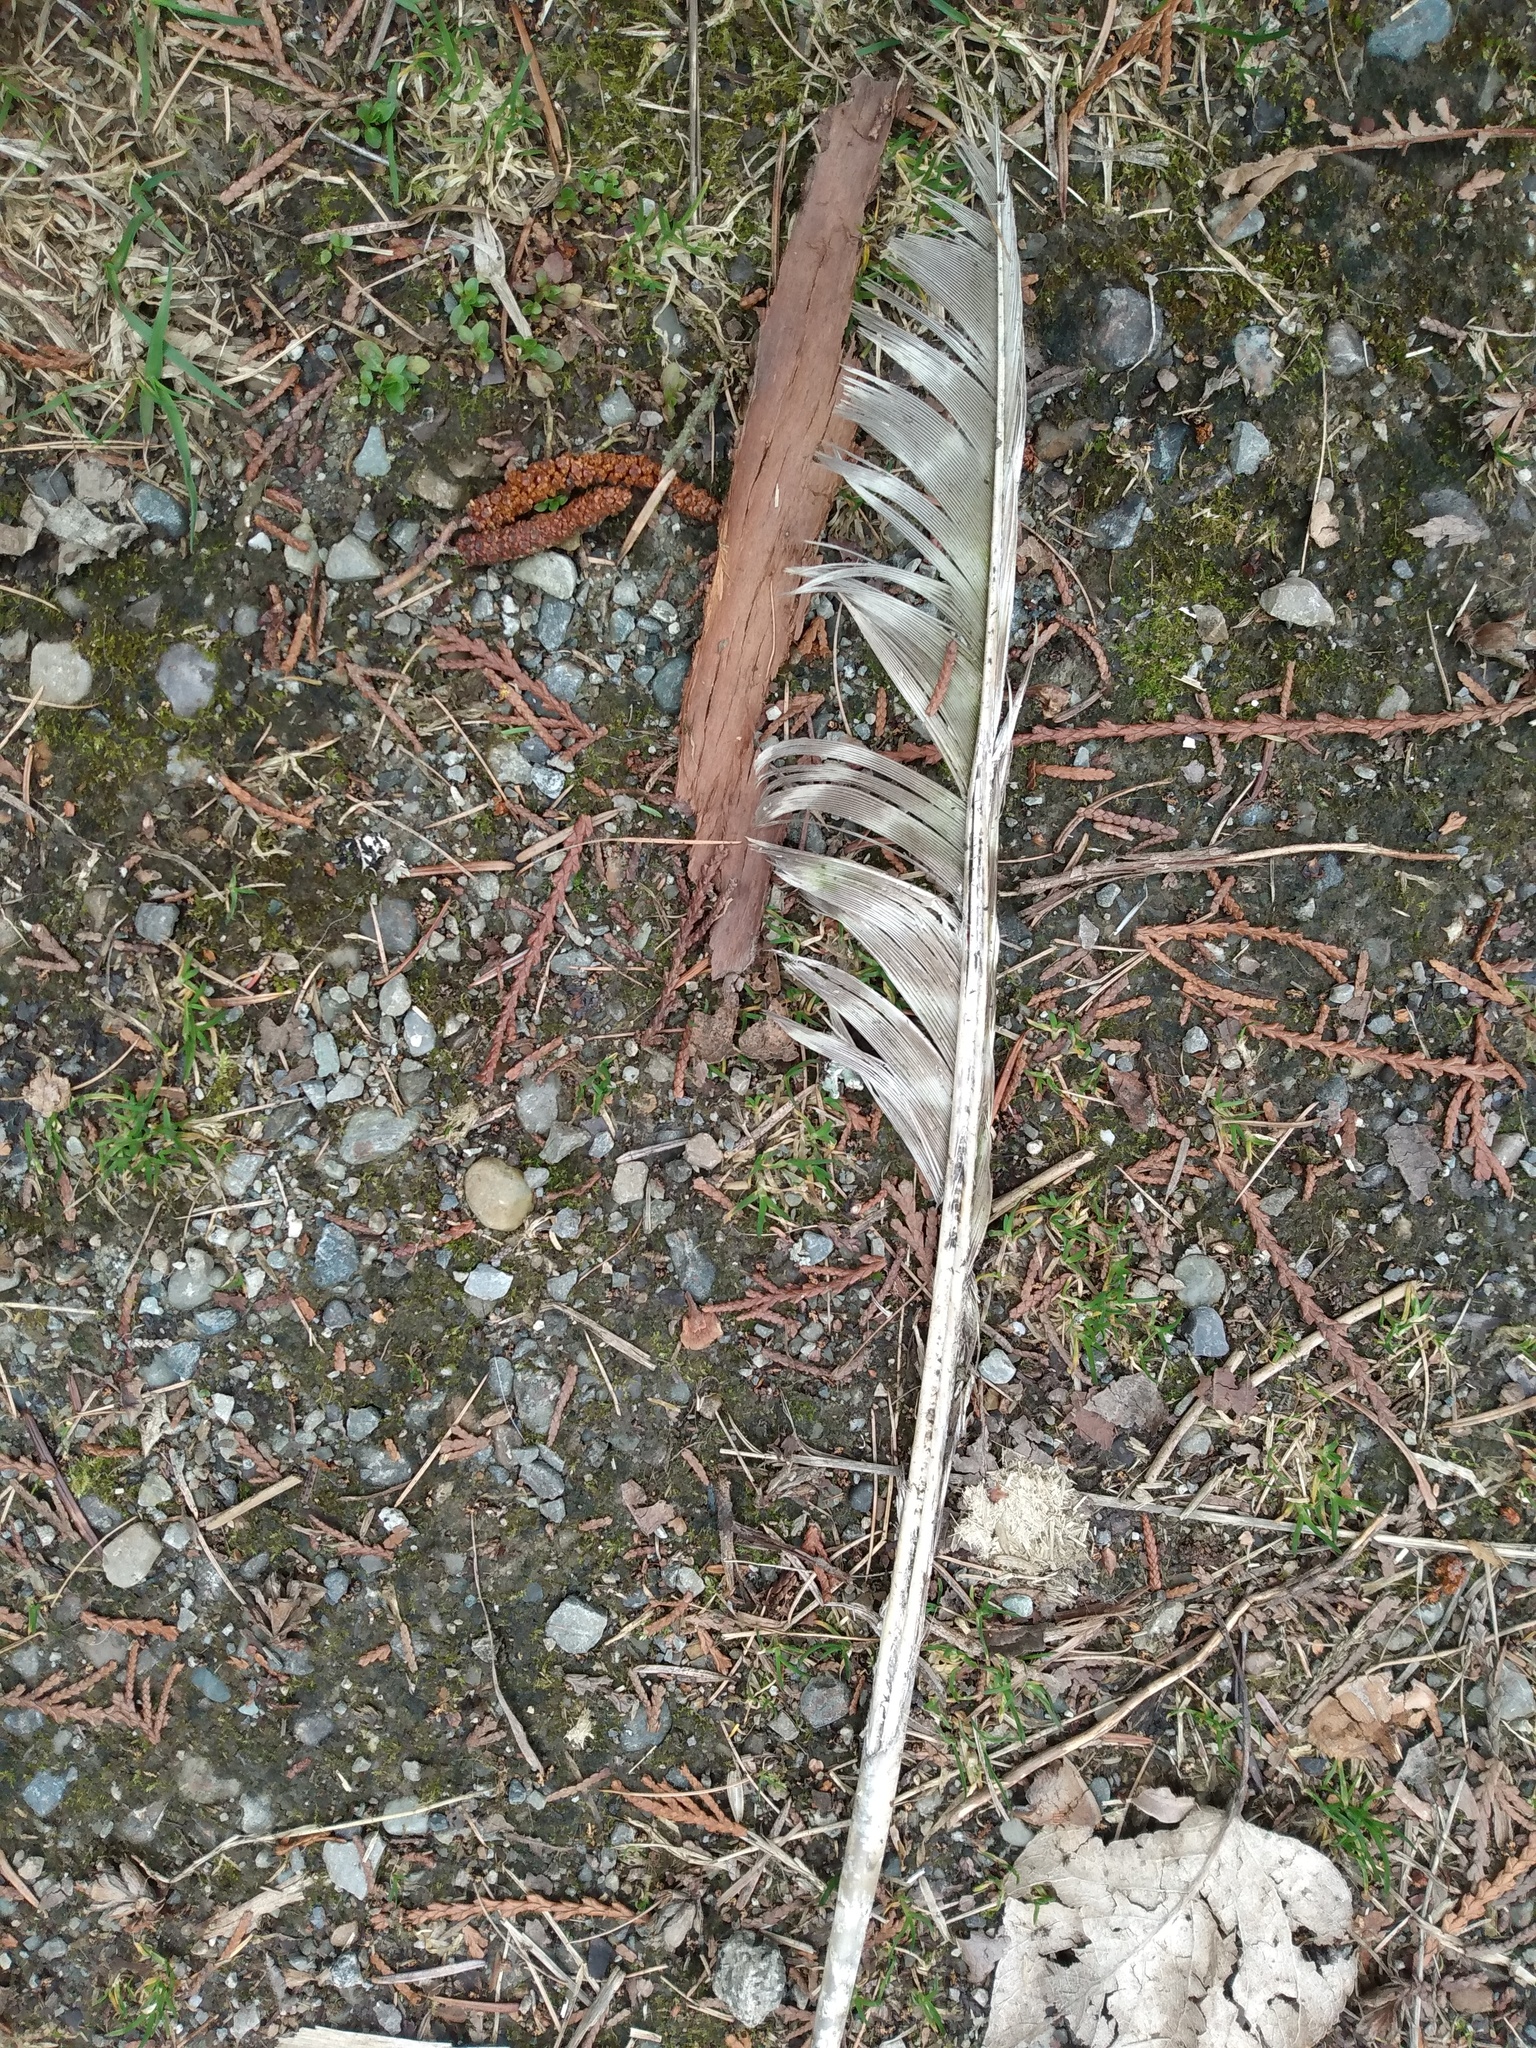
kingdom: Animalia
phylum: Chordata
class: Aves
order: Galliformes
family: Phasianidae
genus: Meleagris
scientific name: Meleagris gallopavo
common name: Wild turkey
